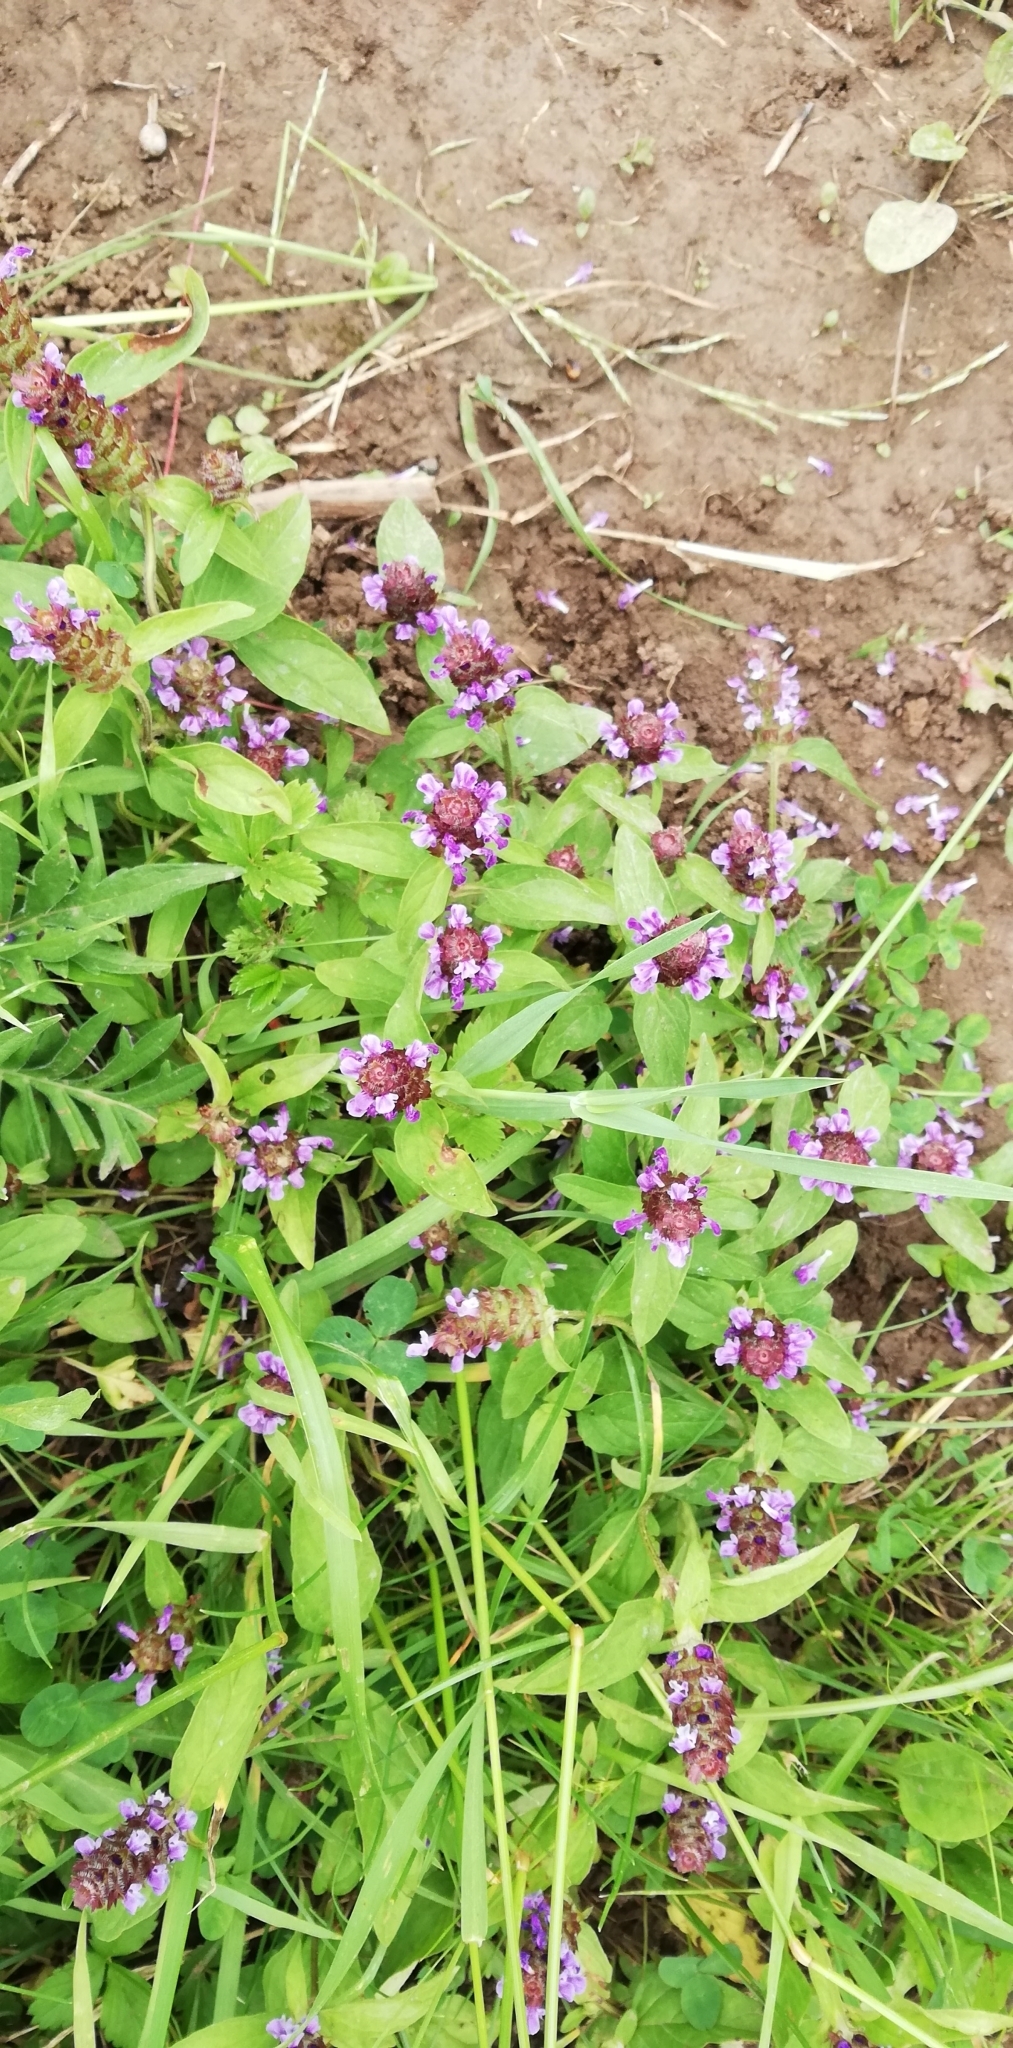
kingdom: Plantae
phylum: Tracheophyta
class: Magnoliopsida
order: Lamiales
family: Lamiaceae
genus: Prunella
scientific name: Prunella vulgaris
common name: Heal-all
